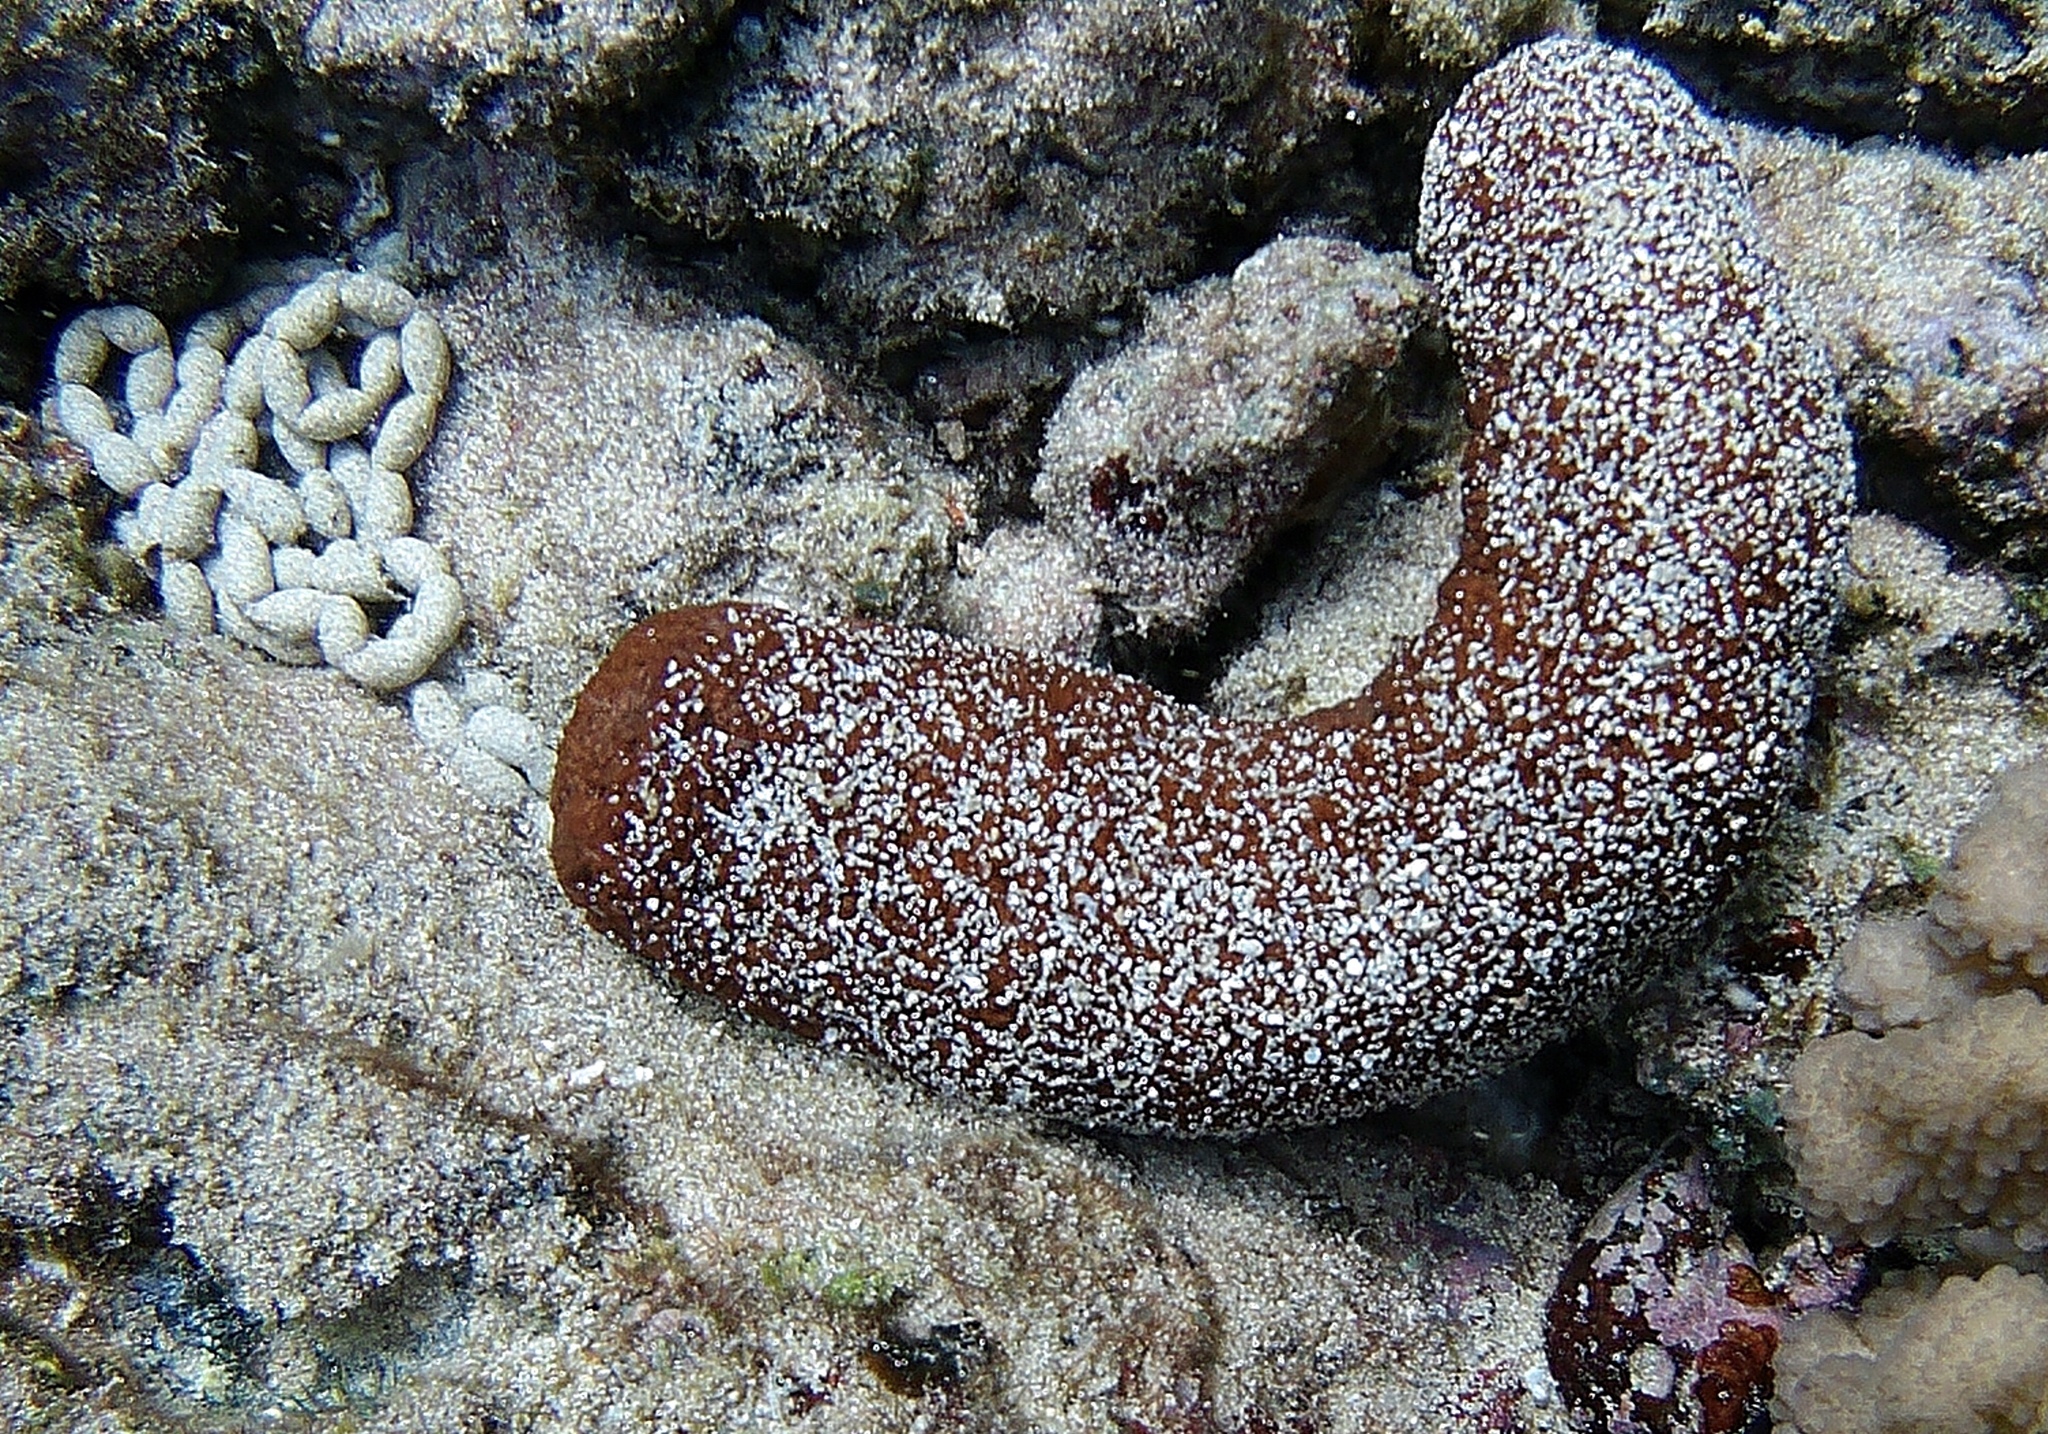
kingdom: Animalia
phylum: Echinodermata
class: Holothuroidea
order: Holothuriida
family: Holothuriidae
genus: Actinopyga
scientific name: Actinopyga varians
